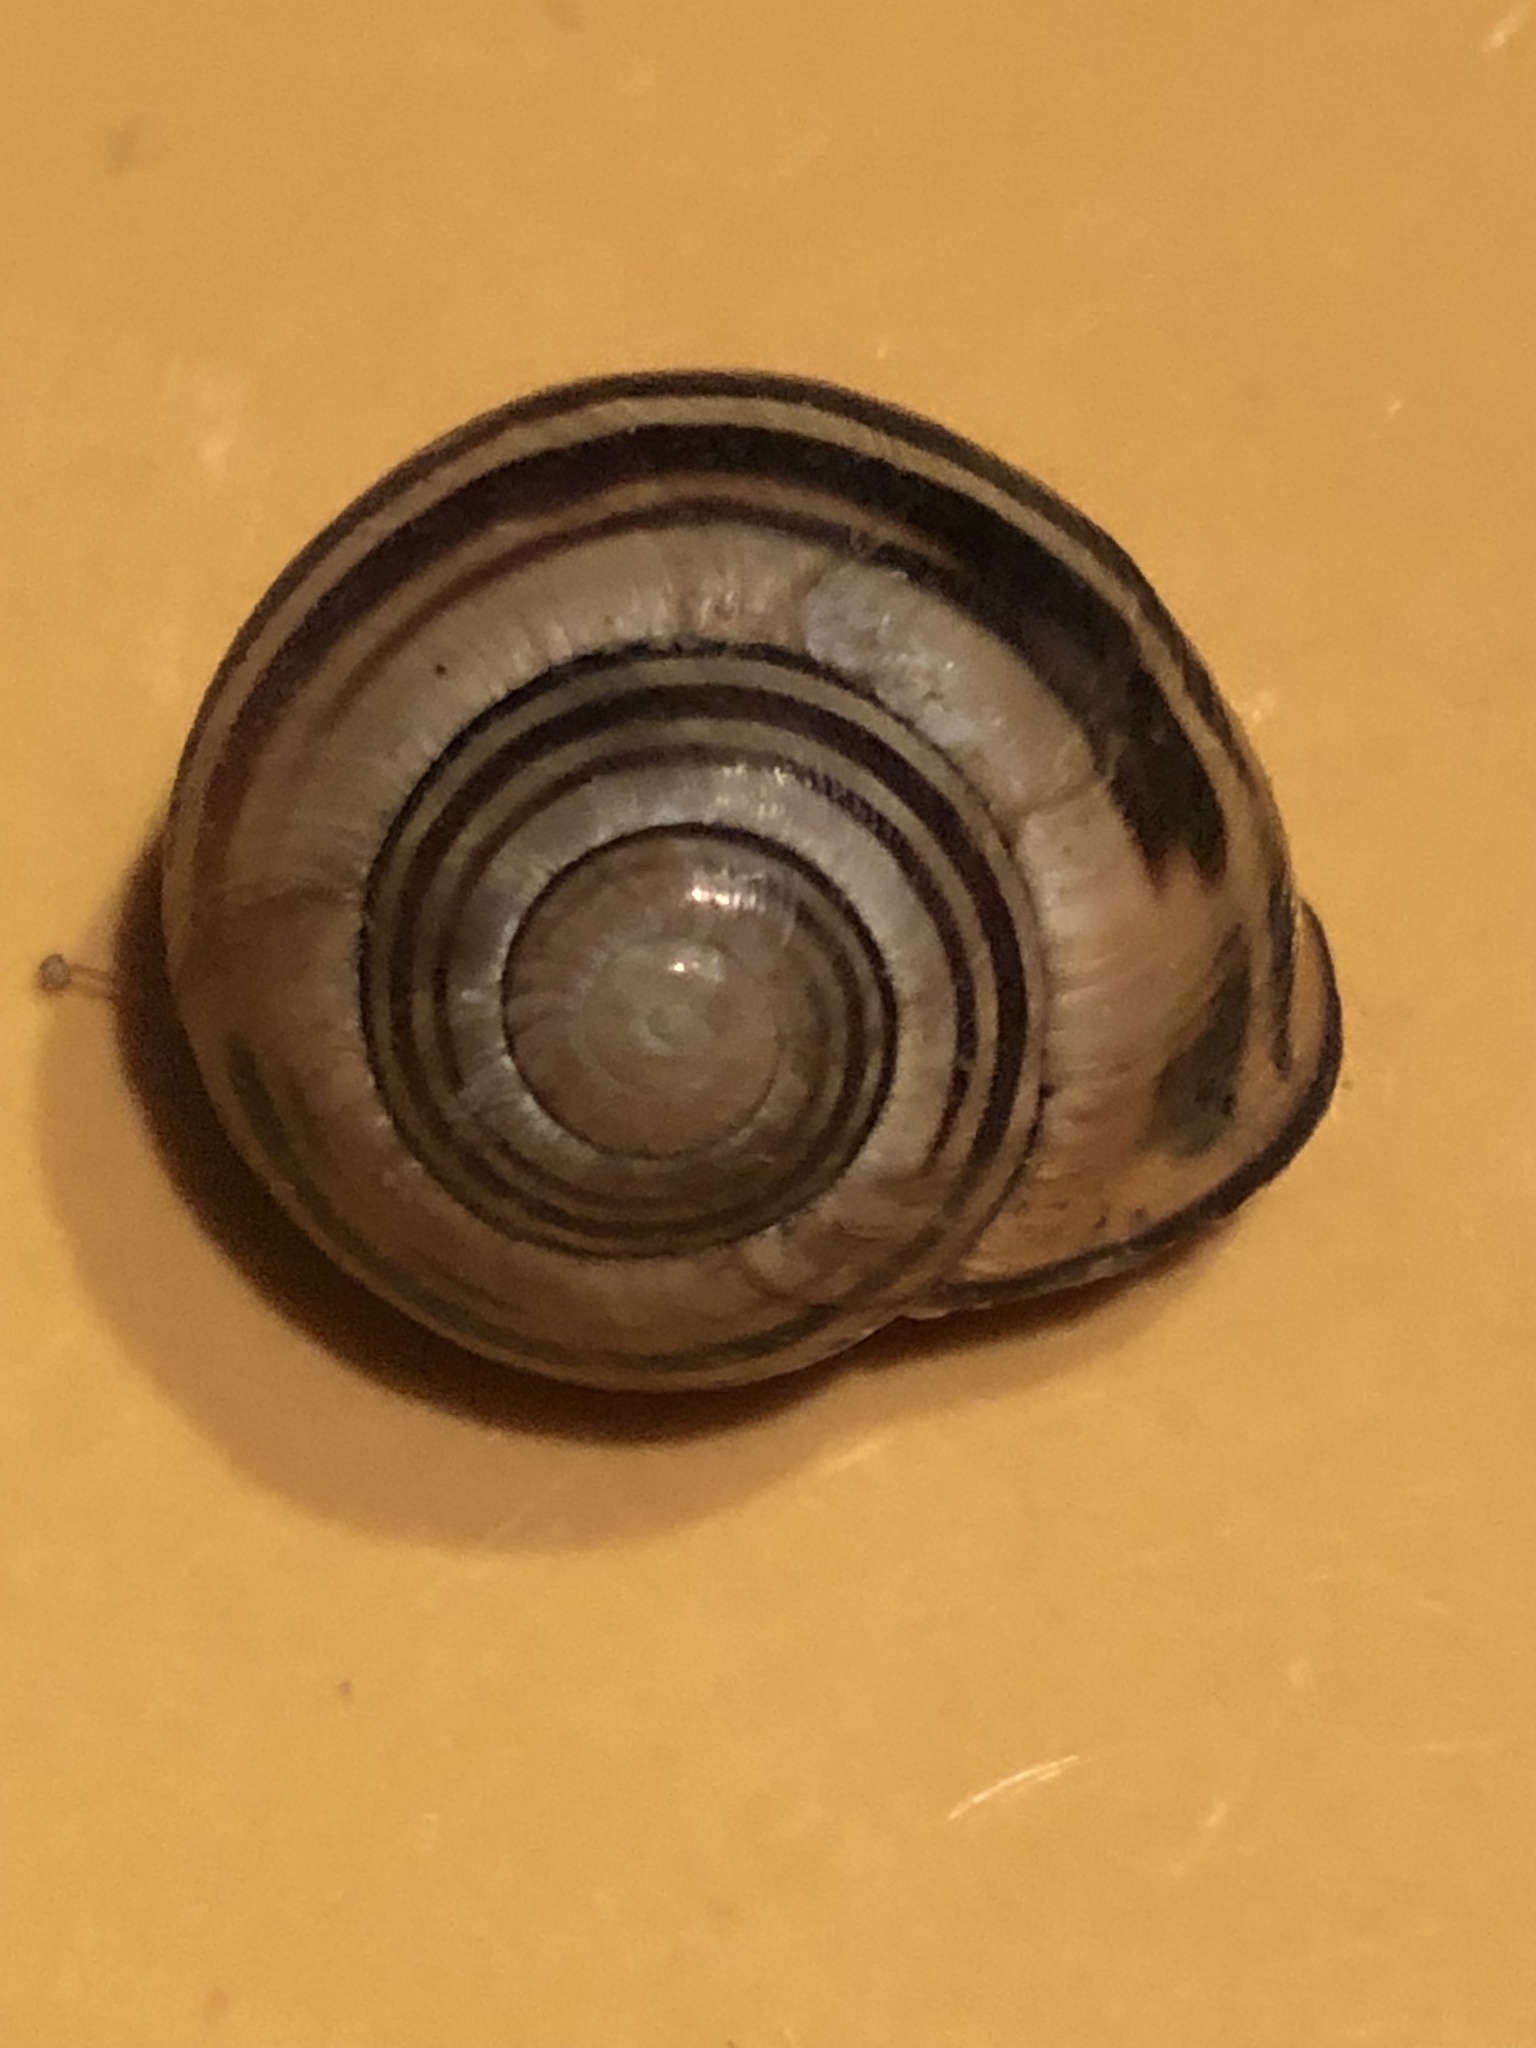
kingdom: Animalia
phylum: Mollusca
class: Gastropoda
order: Stylommatophora
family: Helicidae
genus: Cepaea
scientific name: Cepaea nemoralis
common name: Grovesnail
